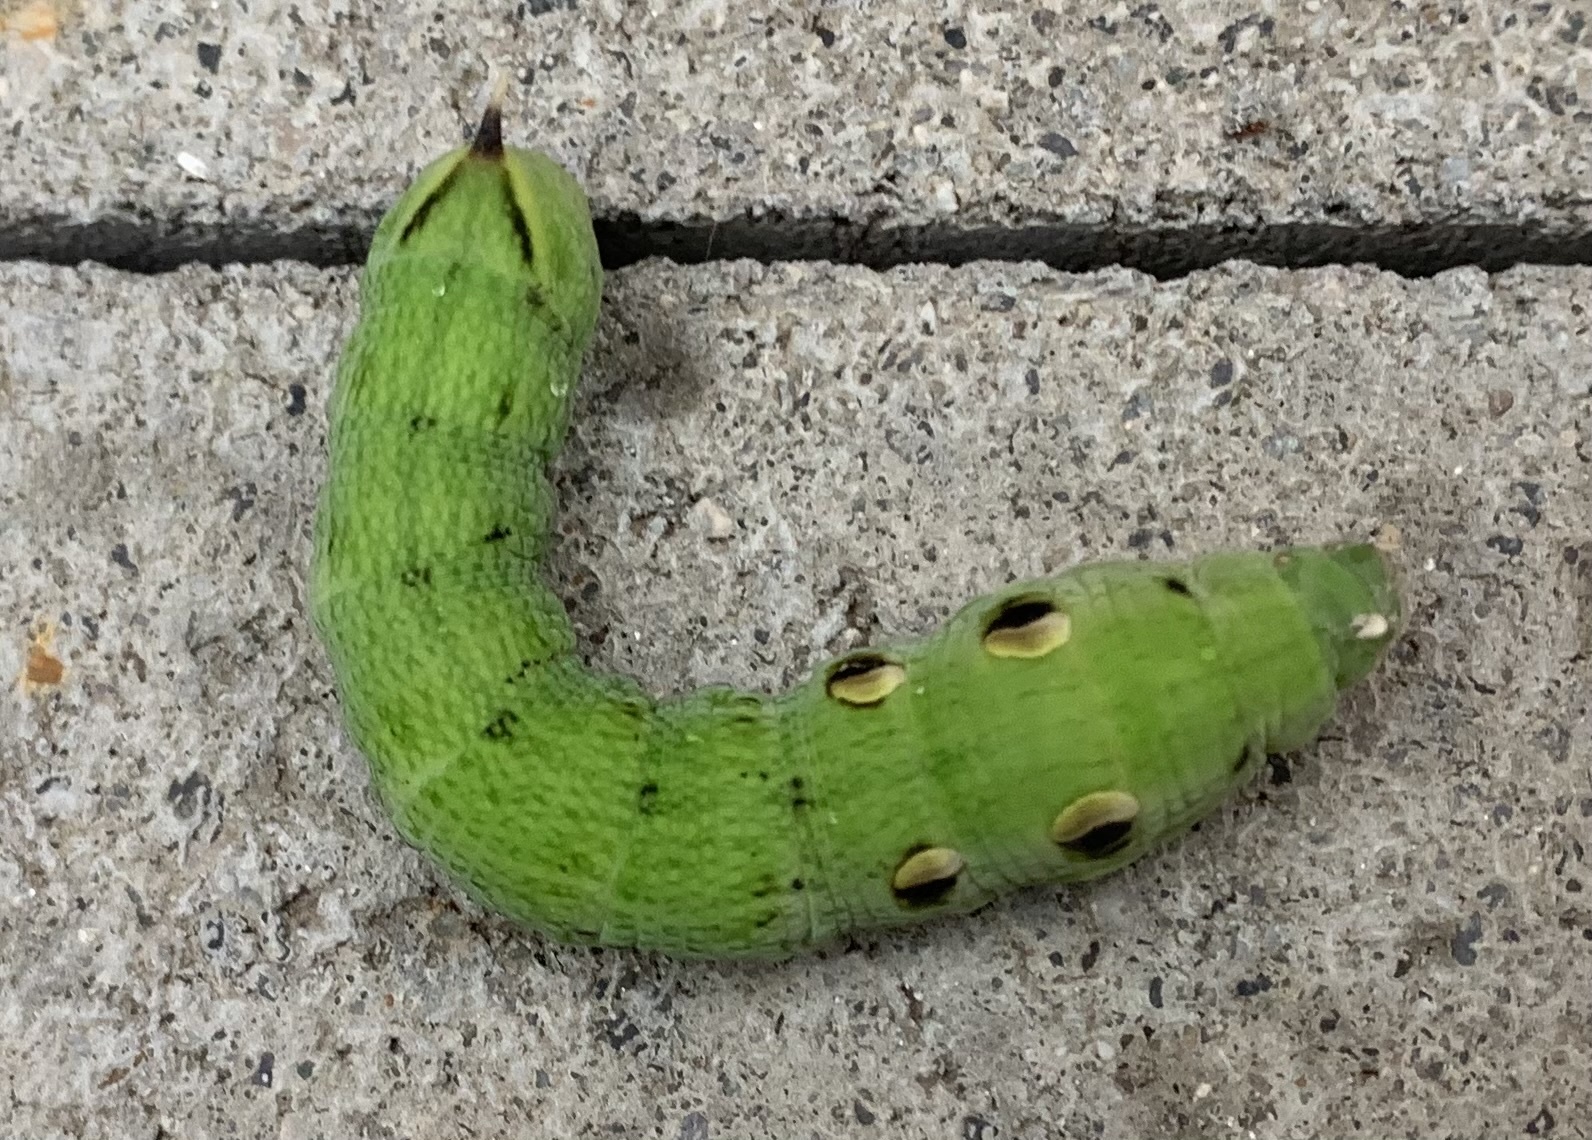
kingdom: Animalia
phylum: Arthropoda
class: Insecta
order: Lepidoptera
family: Sphingidae
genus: Deilephila
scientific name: Deilephila elpenor
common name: Elephant hawk-moth
